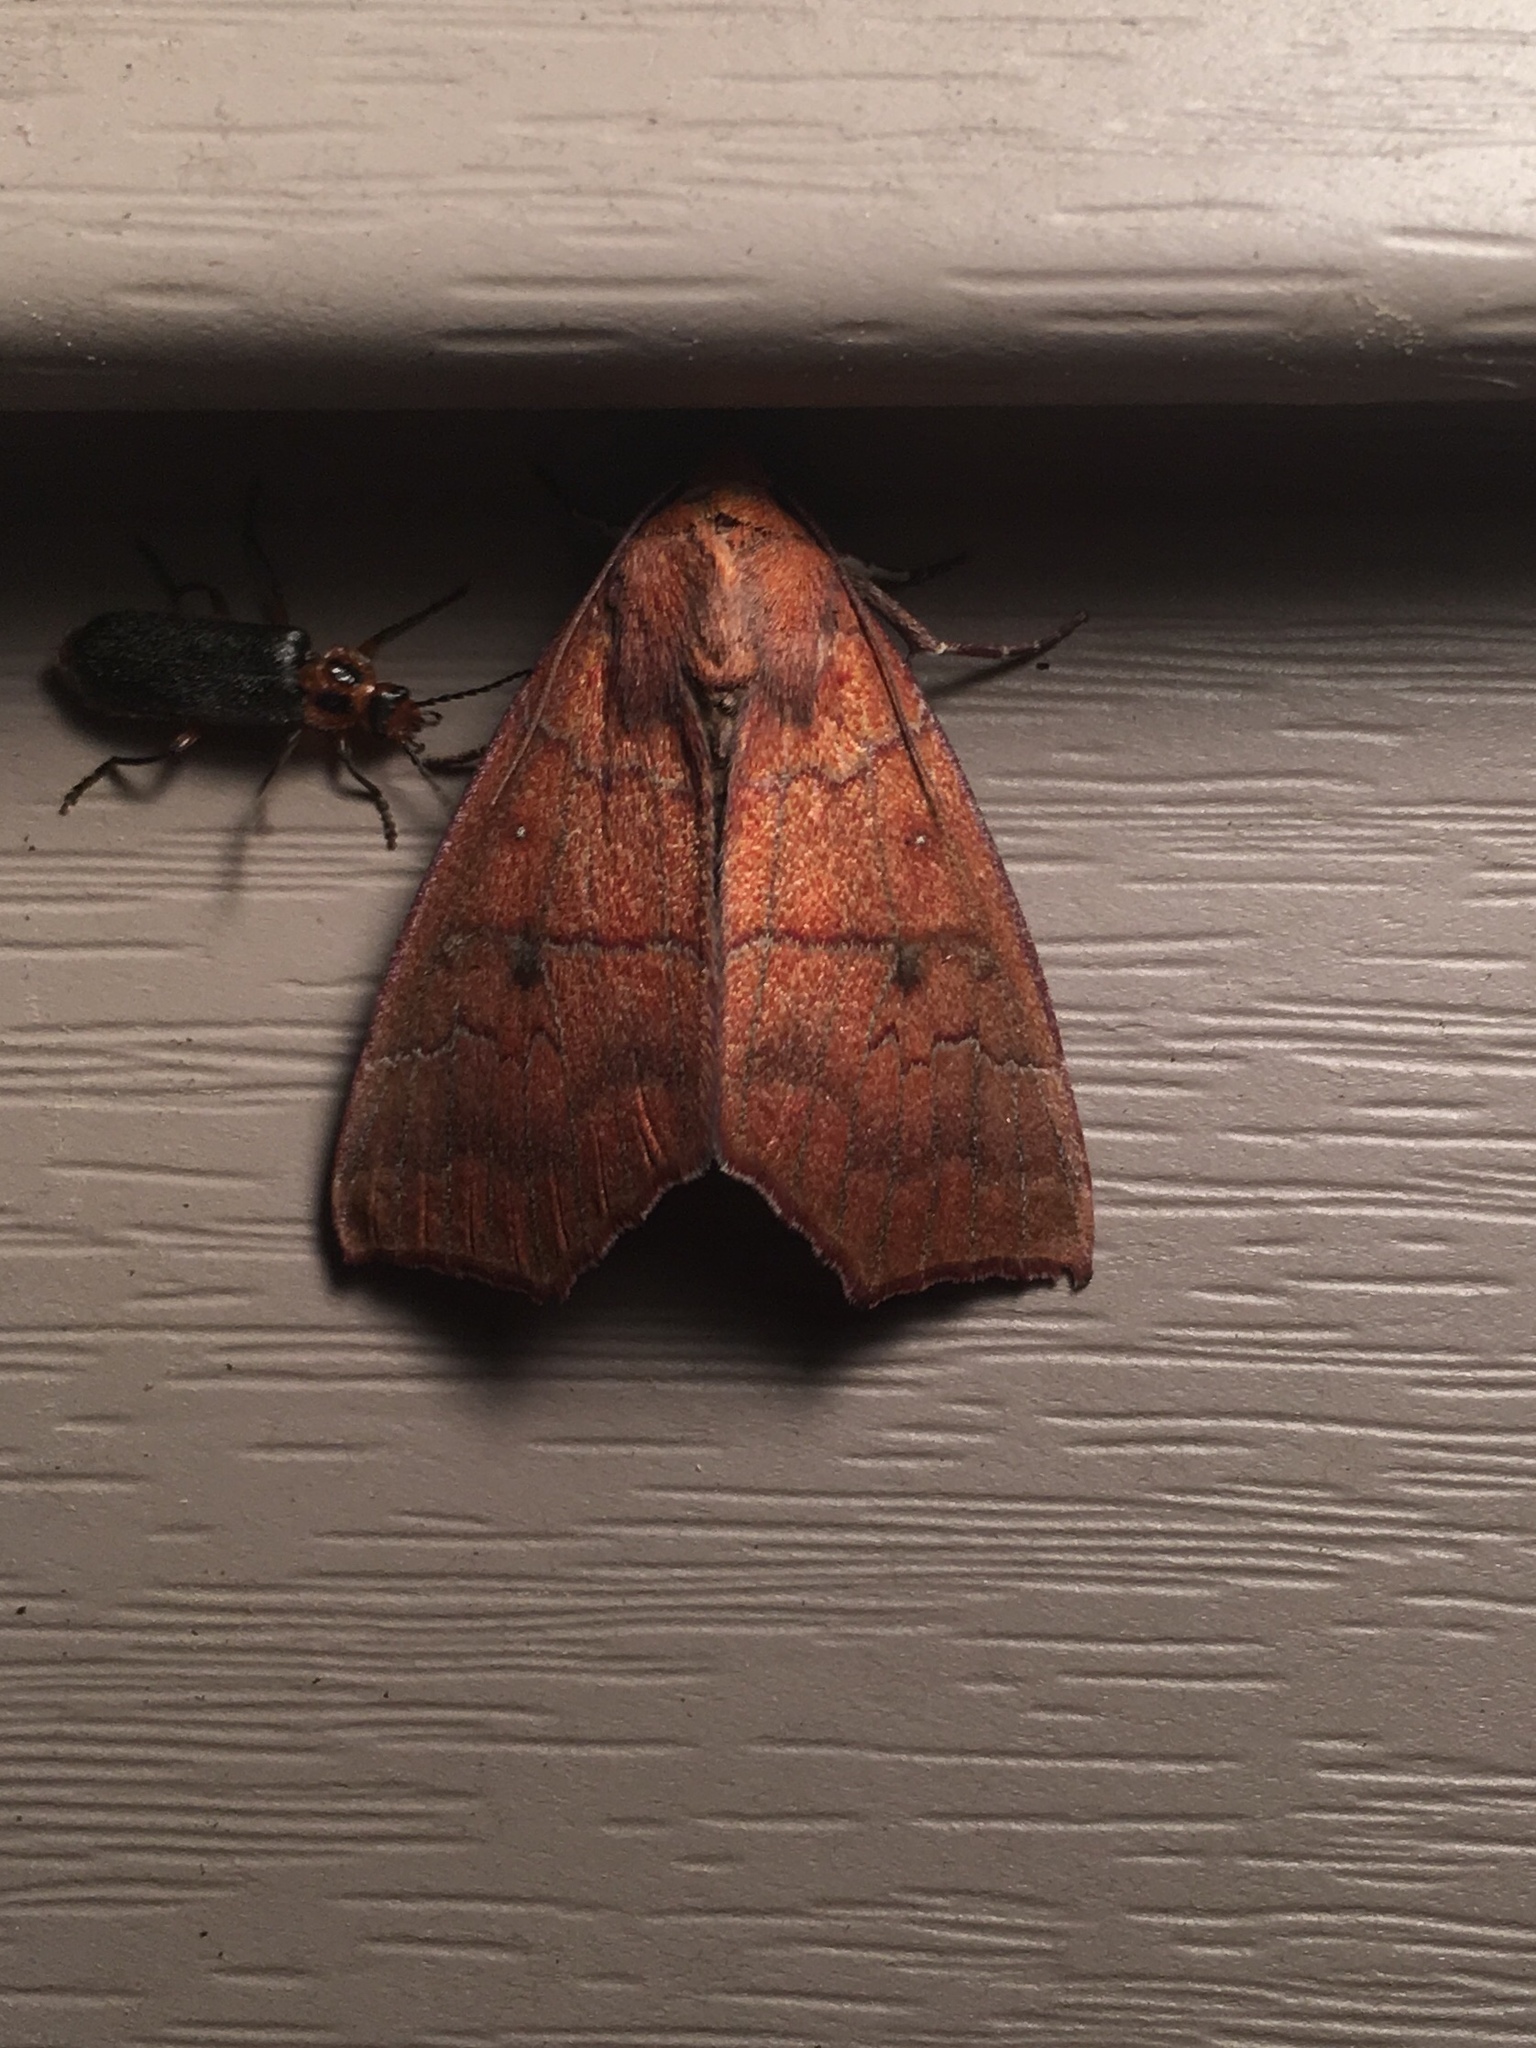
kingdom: Animalia
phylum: Arthropoda
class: Insecta
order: Lepidoptera
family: Erebidae
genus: Rusicada
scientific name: Rusicada privata
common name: Hibiscus leaf caterpillar moth
